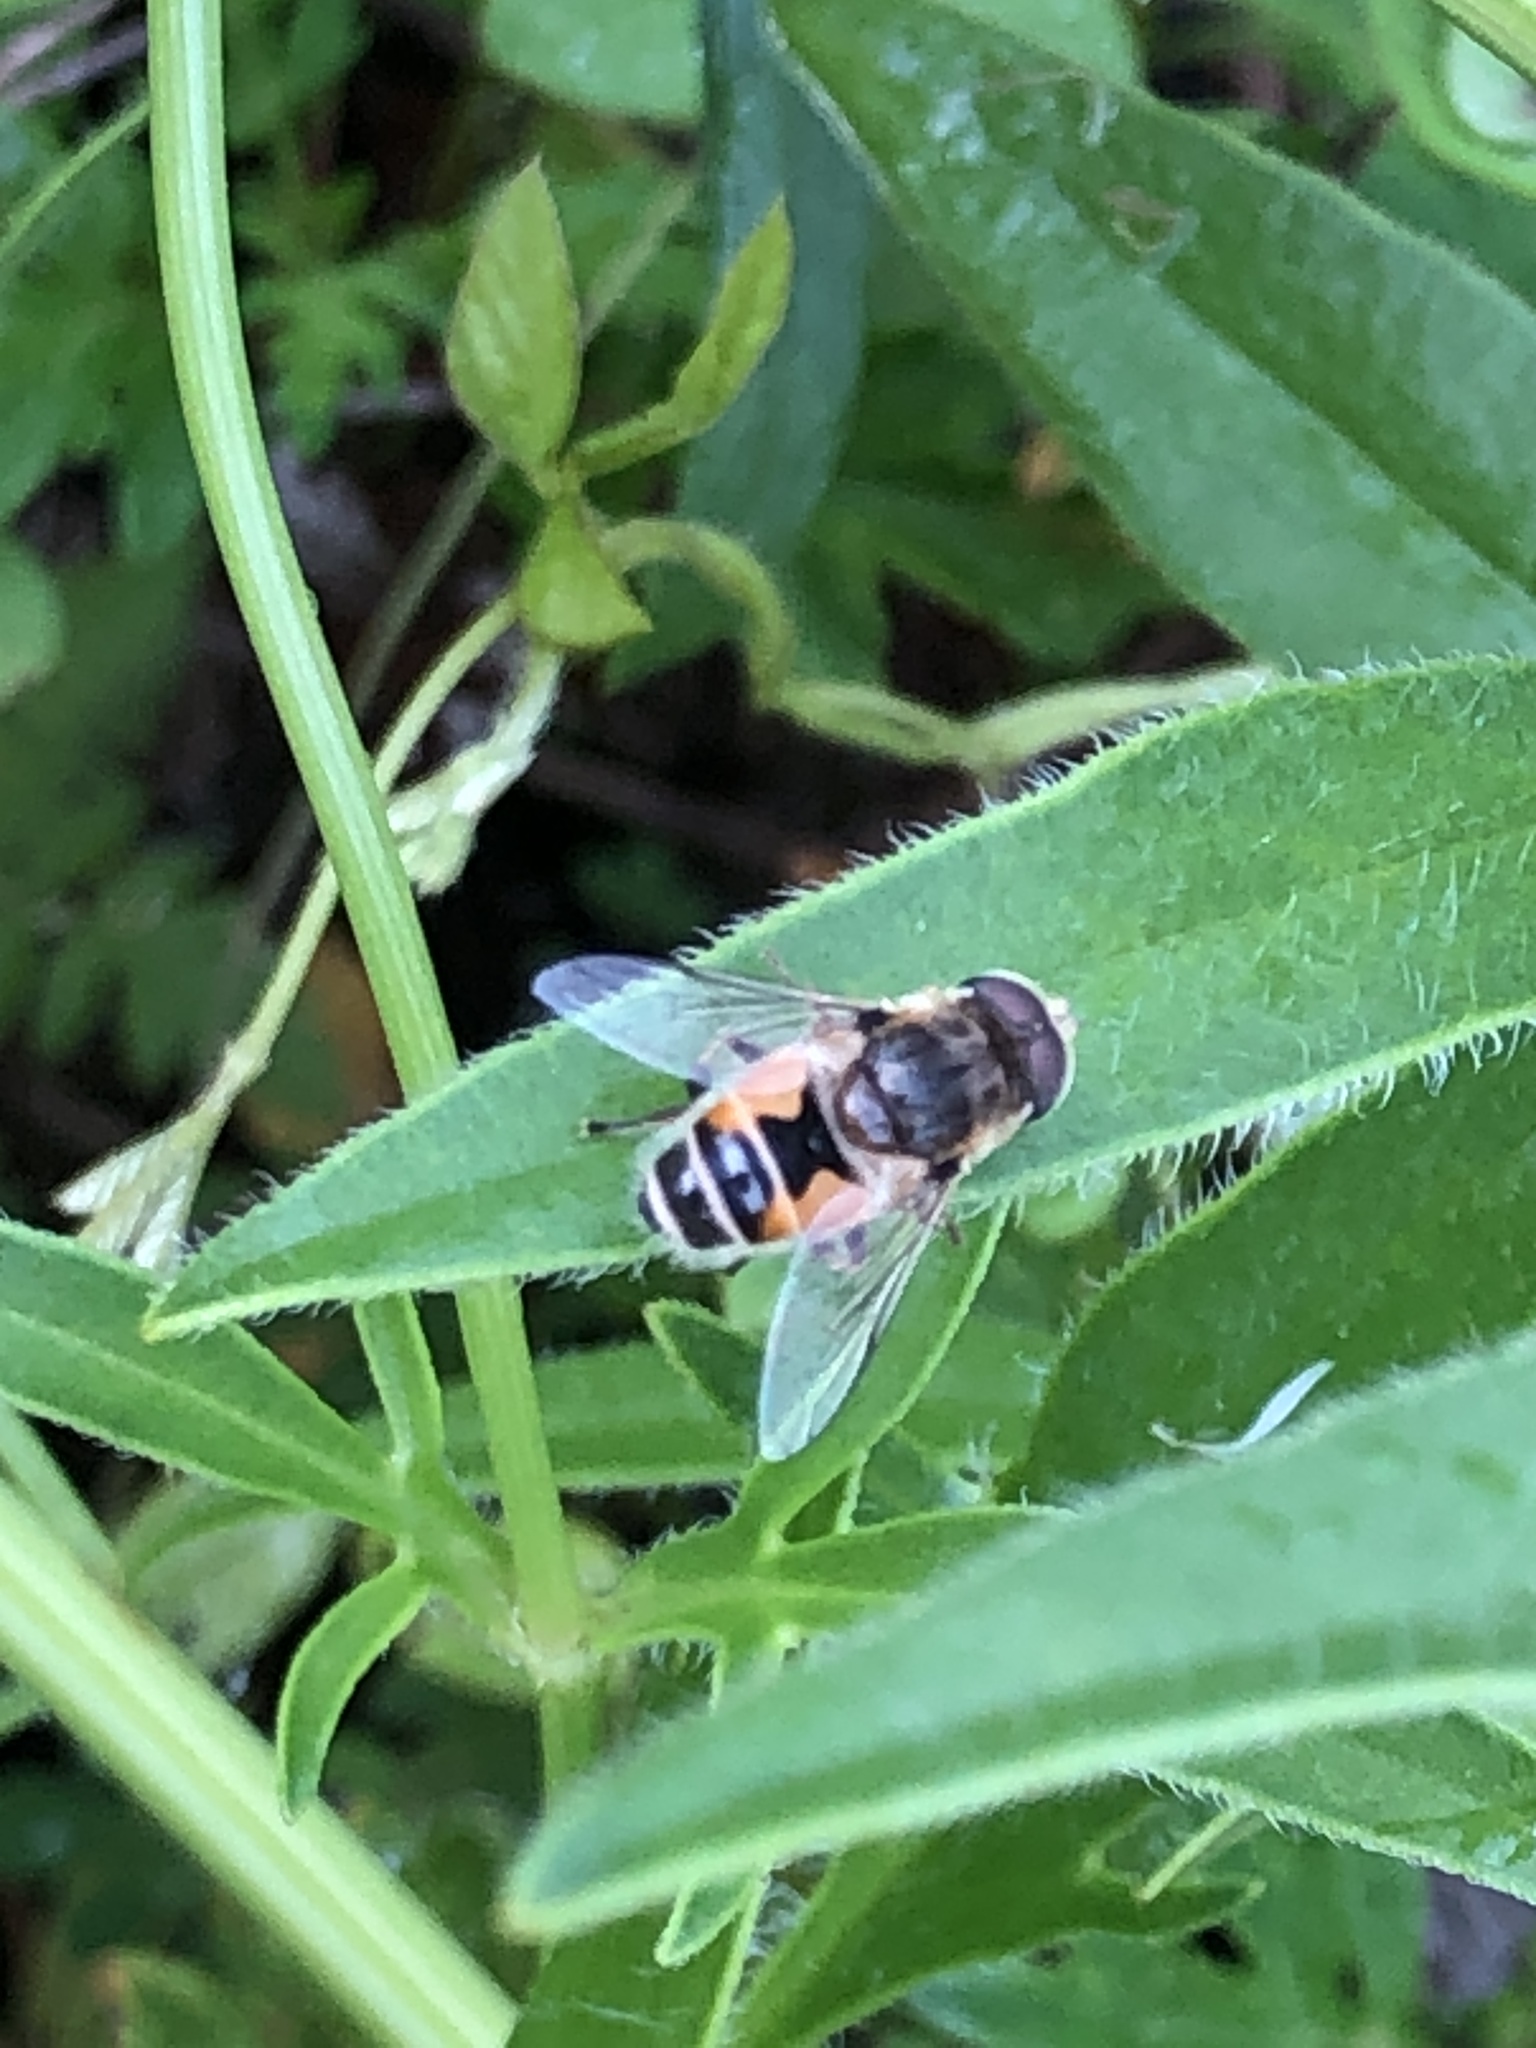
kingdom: Animalia
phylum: Arthropoda
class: Insecta
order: Diptera
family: Syrphidae
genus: Eristalis
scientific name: Eristalis arbustorum
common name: Hover fly
